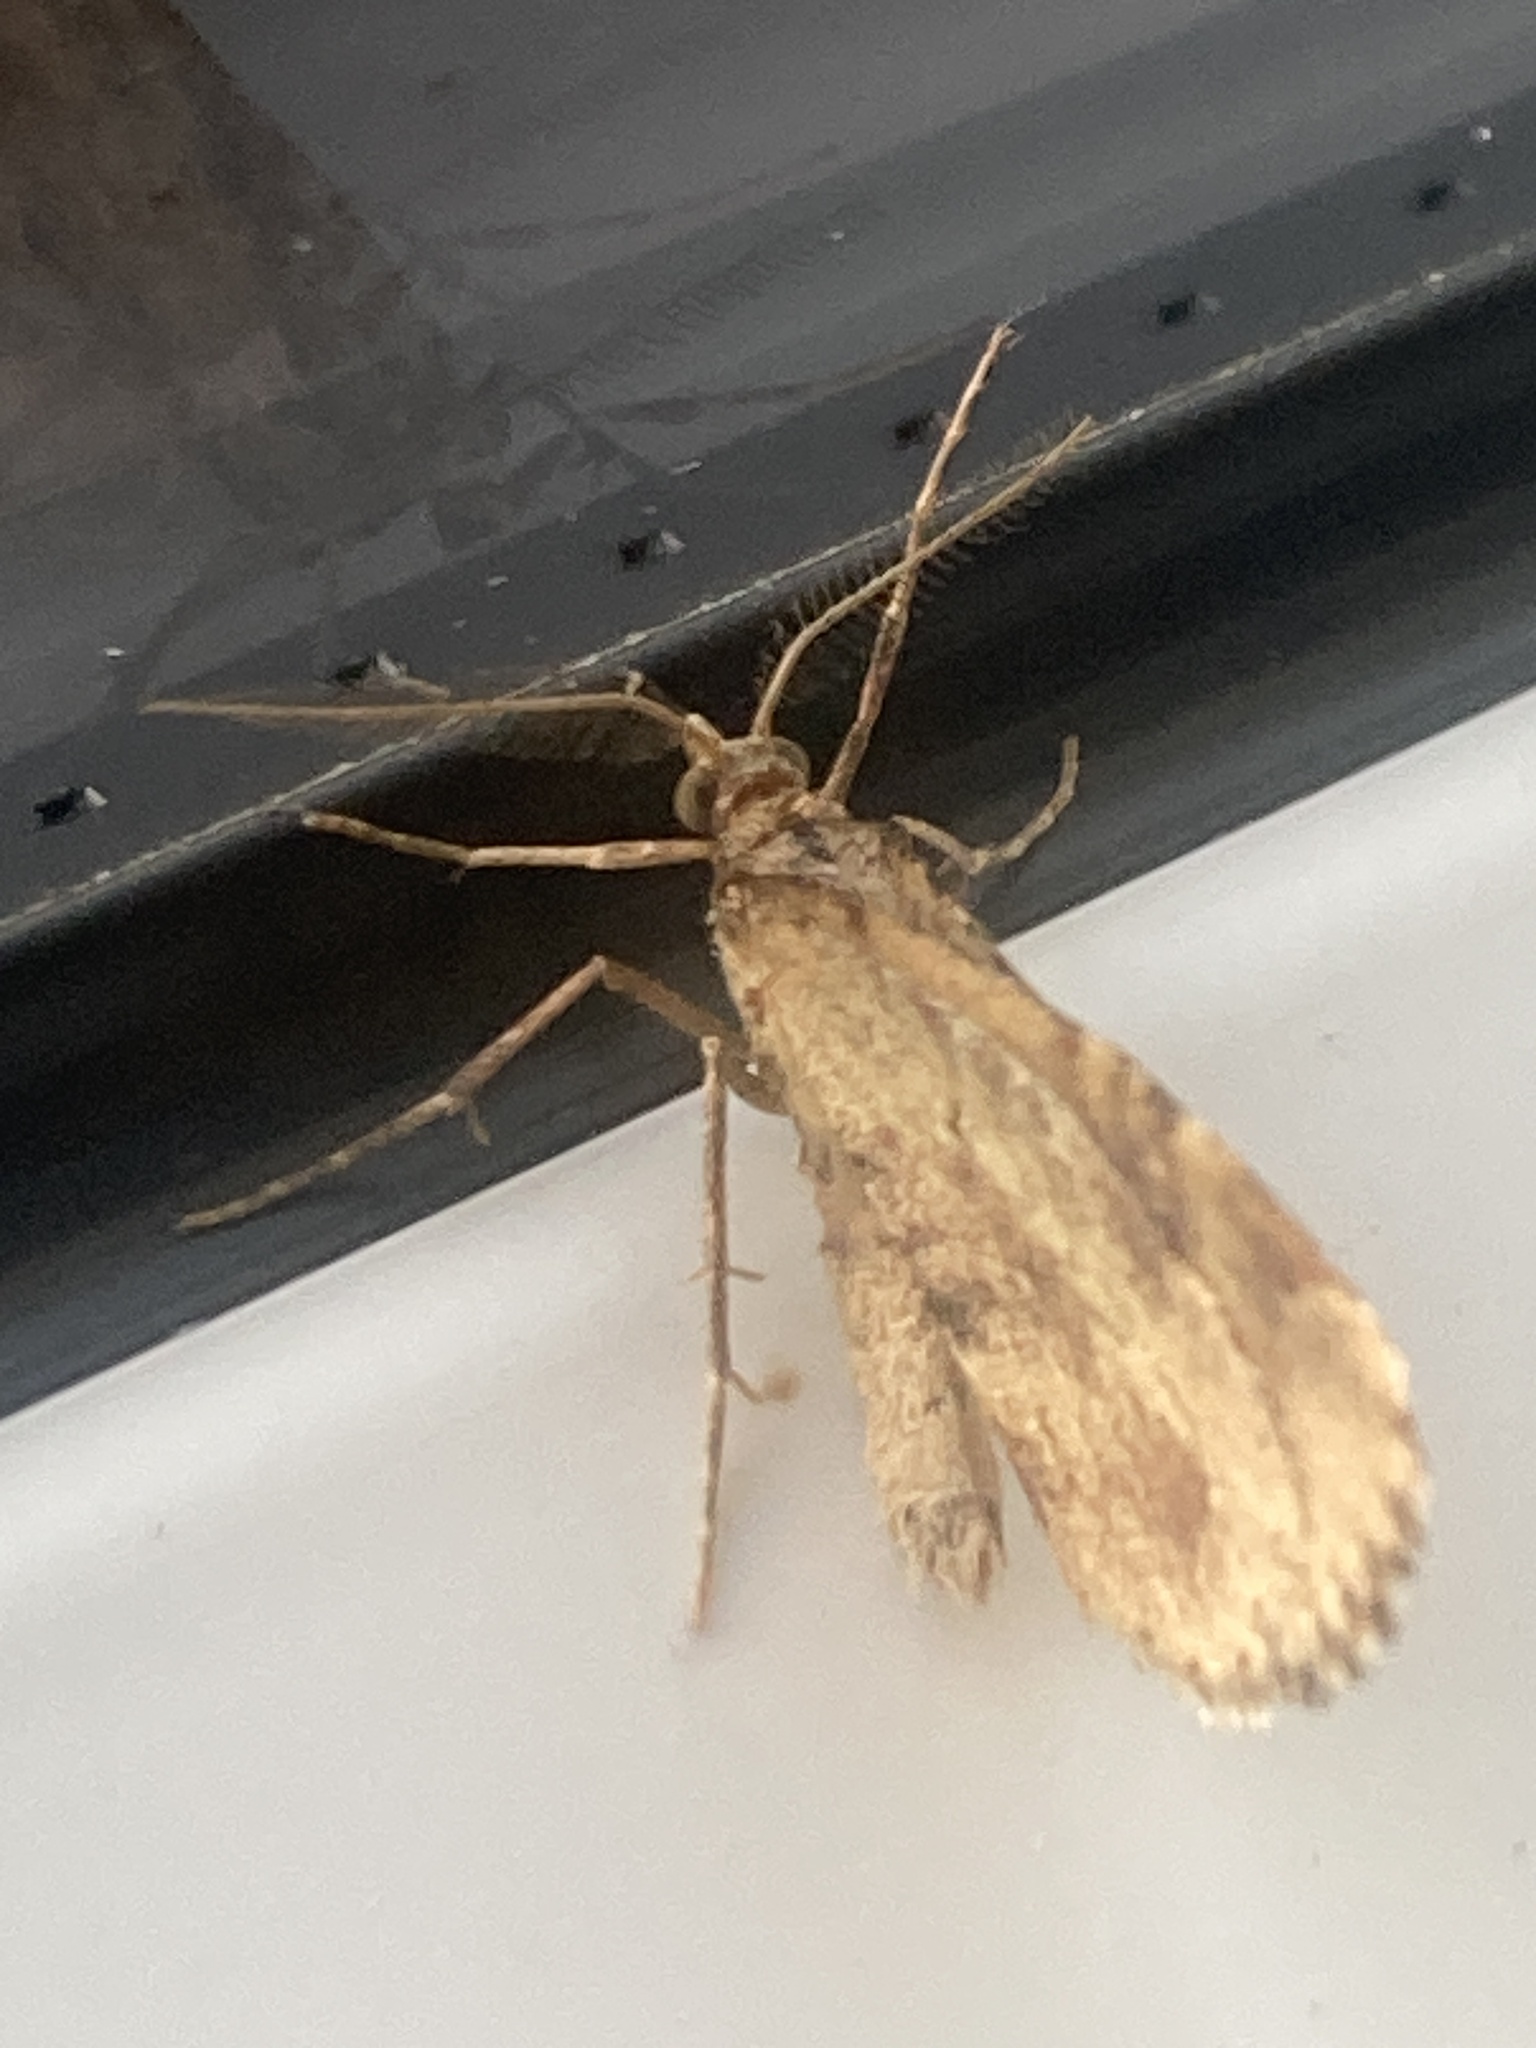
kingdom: Animalia
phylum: Arthropoda
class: Insecta
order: Lepidoptera
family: Geometridae
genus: Asaphodes
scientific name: Asaphodes aegrota
